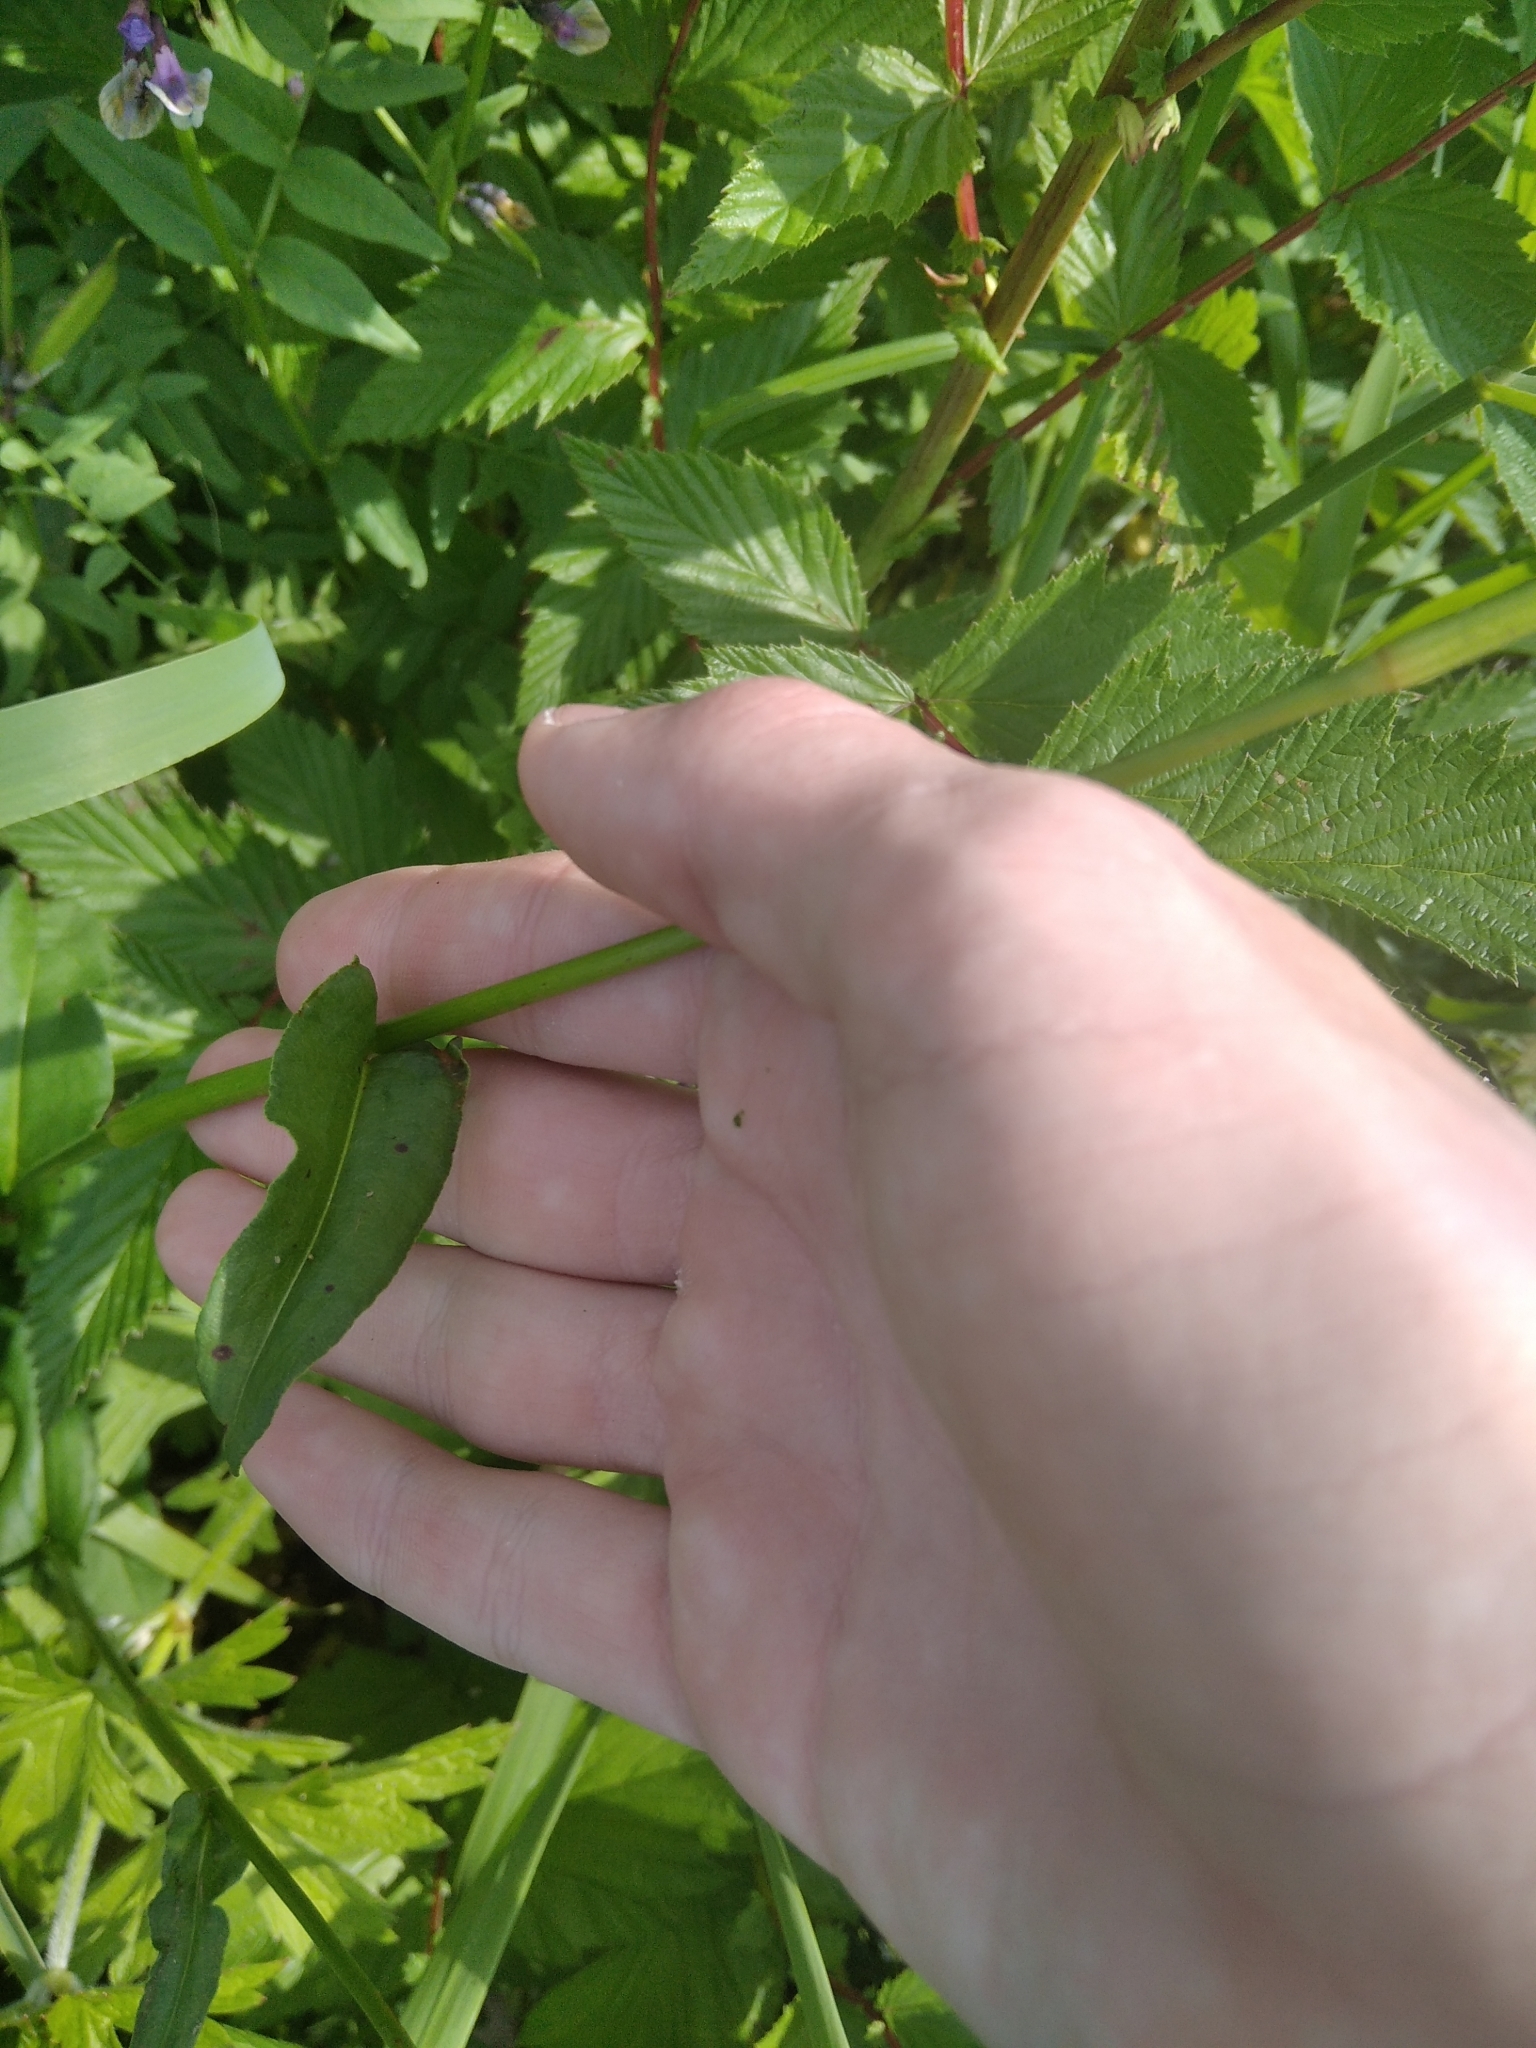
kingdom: Plantae
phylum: Tracheophyta
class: Magnoliopsida
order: Caryophyllales
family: Polygonaceae
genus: Bistorta
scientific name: Bistorta officinalis
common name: Common bistort
